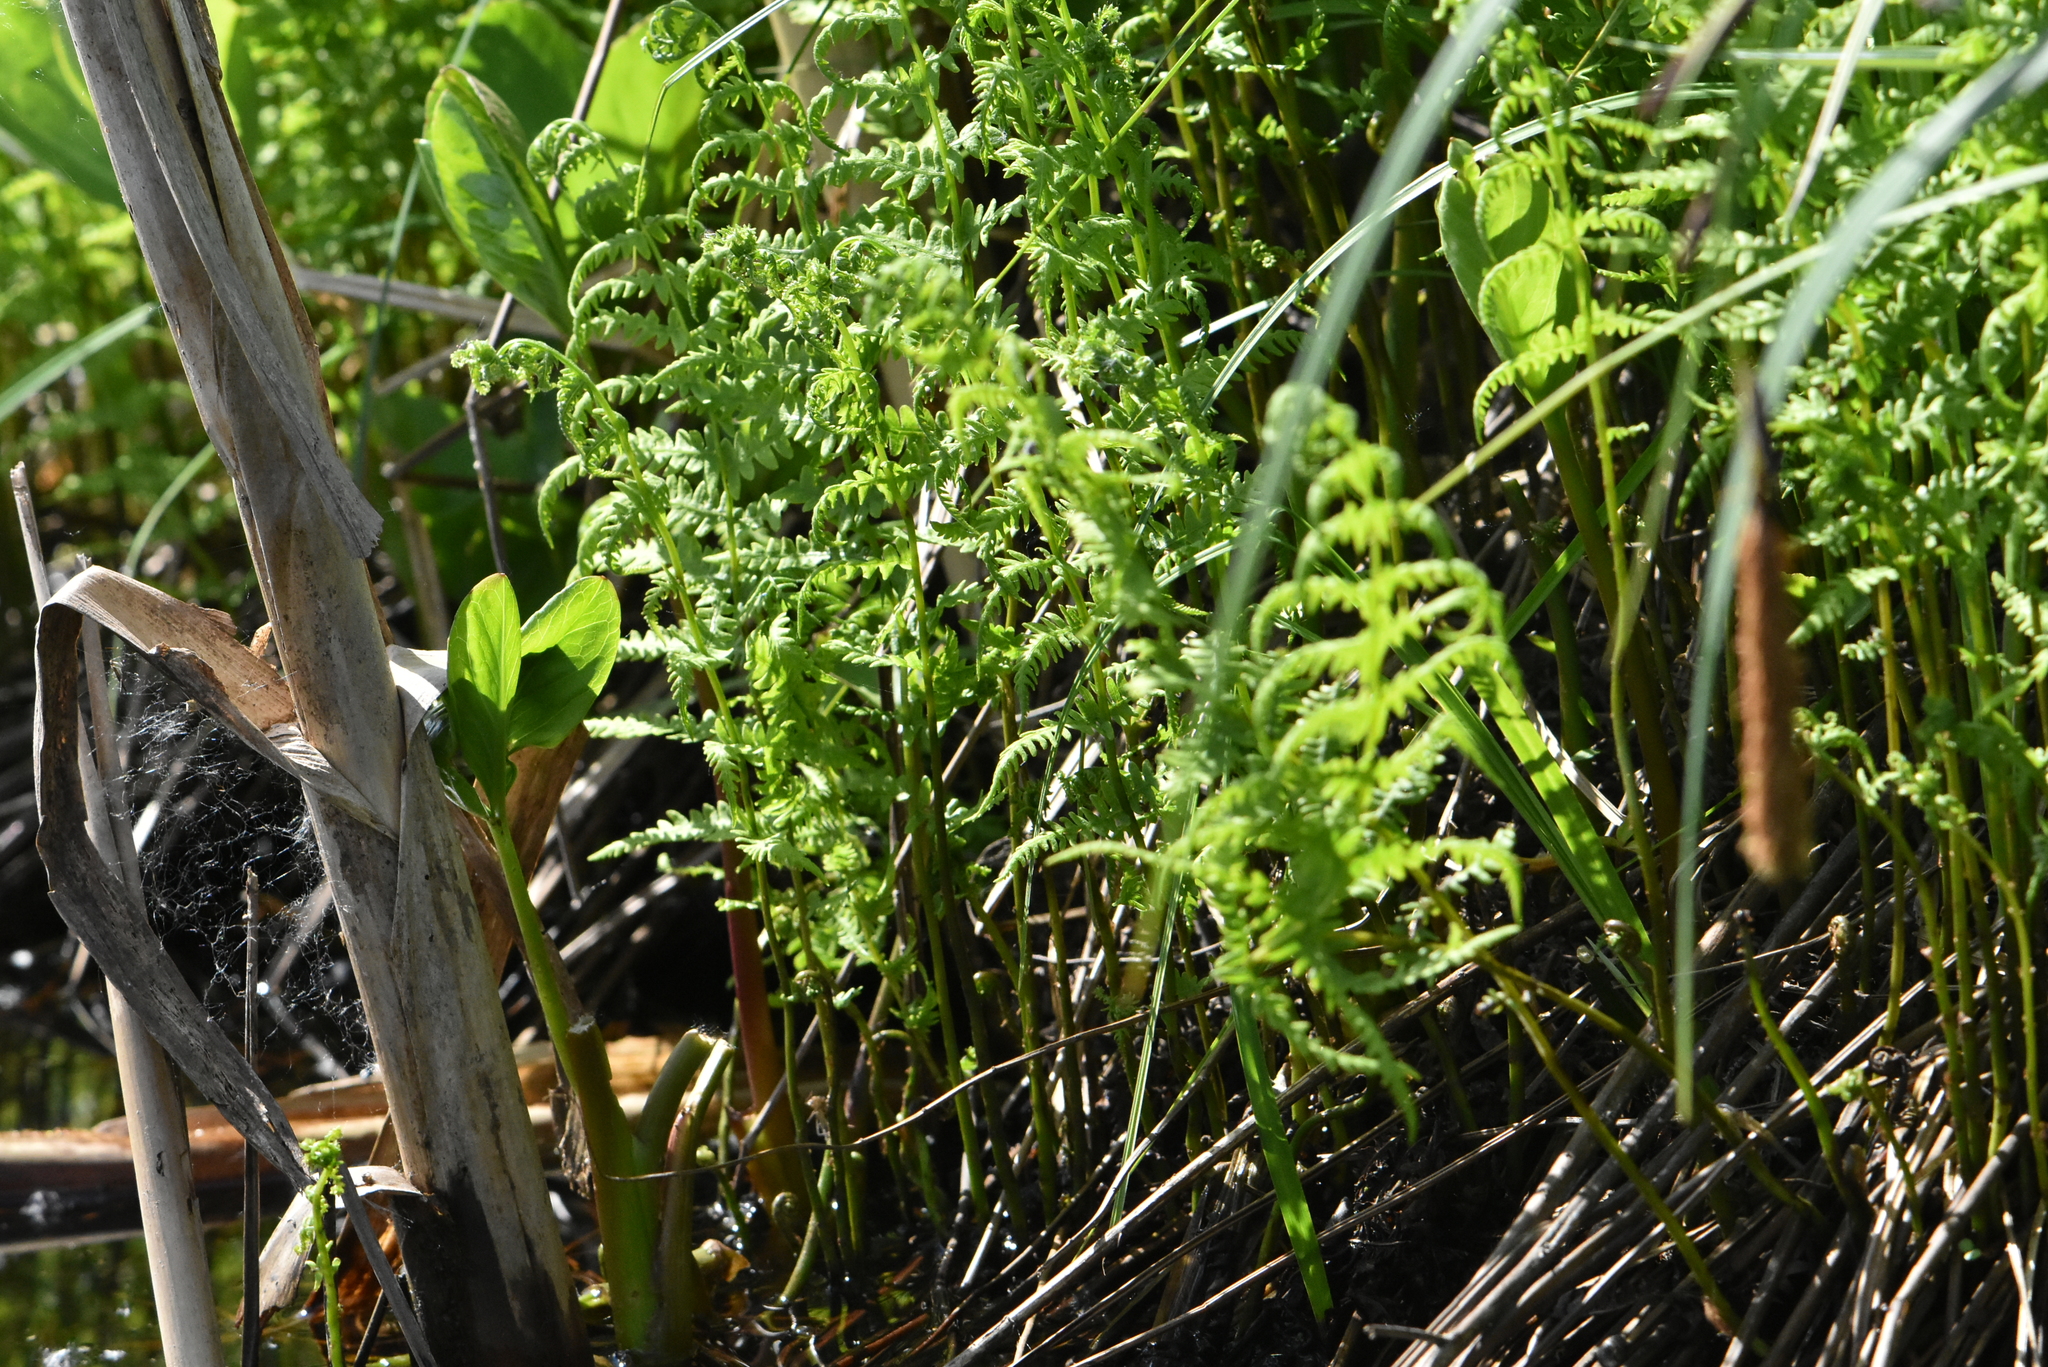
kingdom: Plantae
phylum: Tracheophyta
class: Polypodiopsida
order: Polypodiales
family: Thelypteridaceae
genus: Thelypteris
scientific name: Thelypteris palustris
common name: Marsh fern
